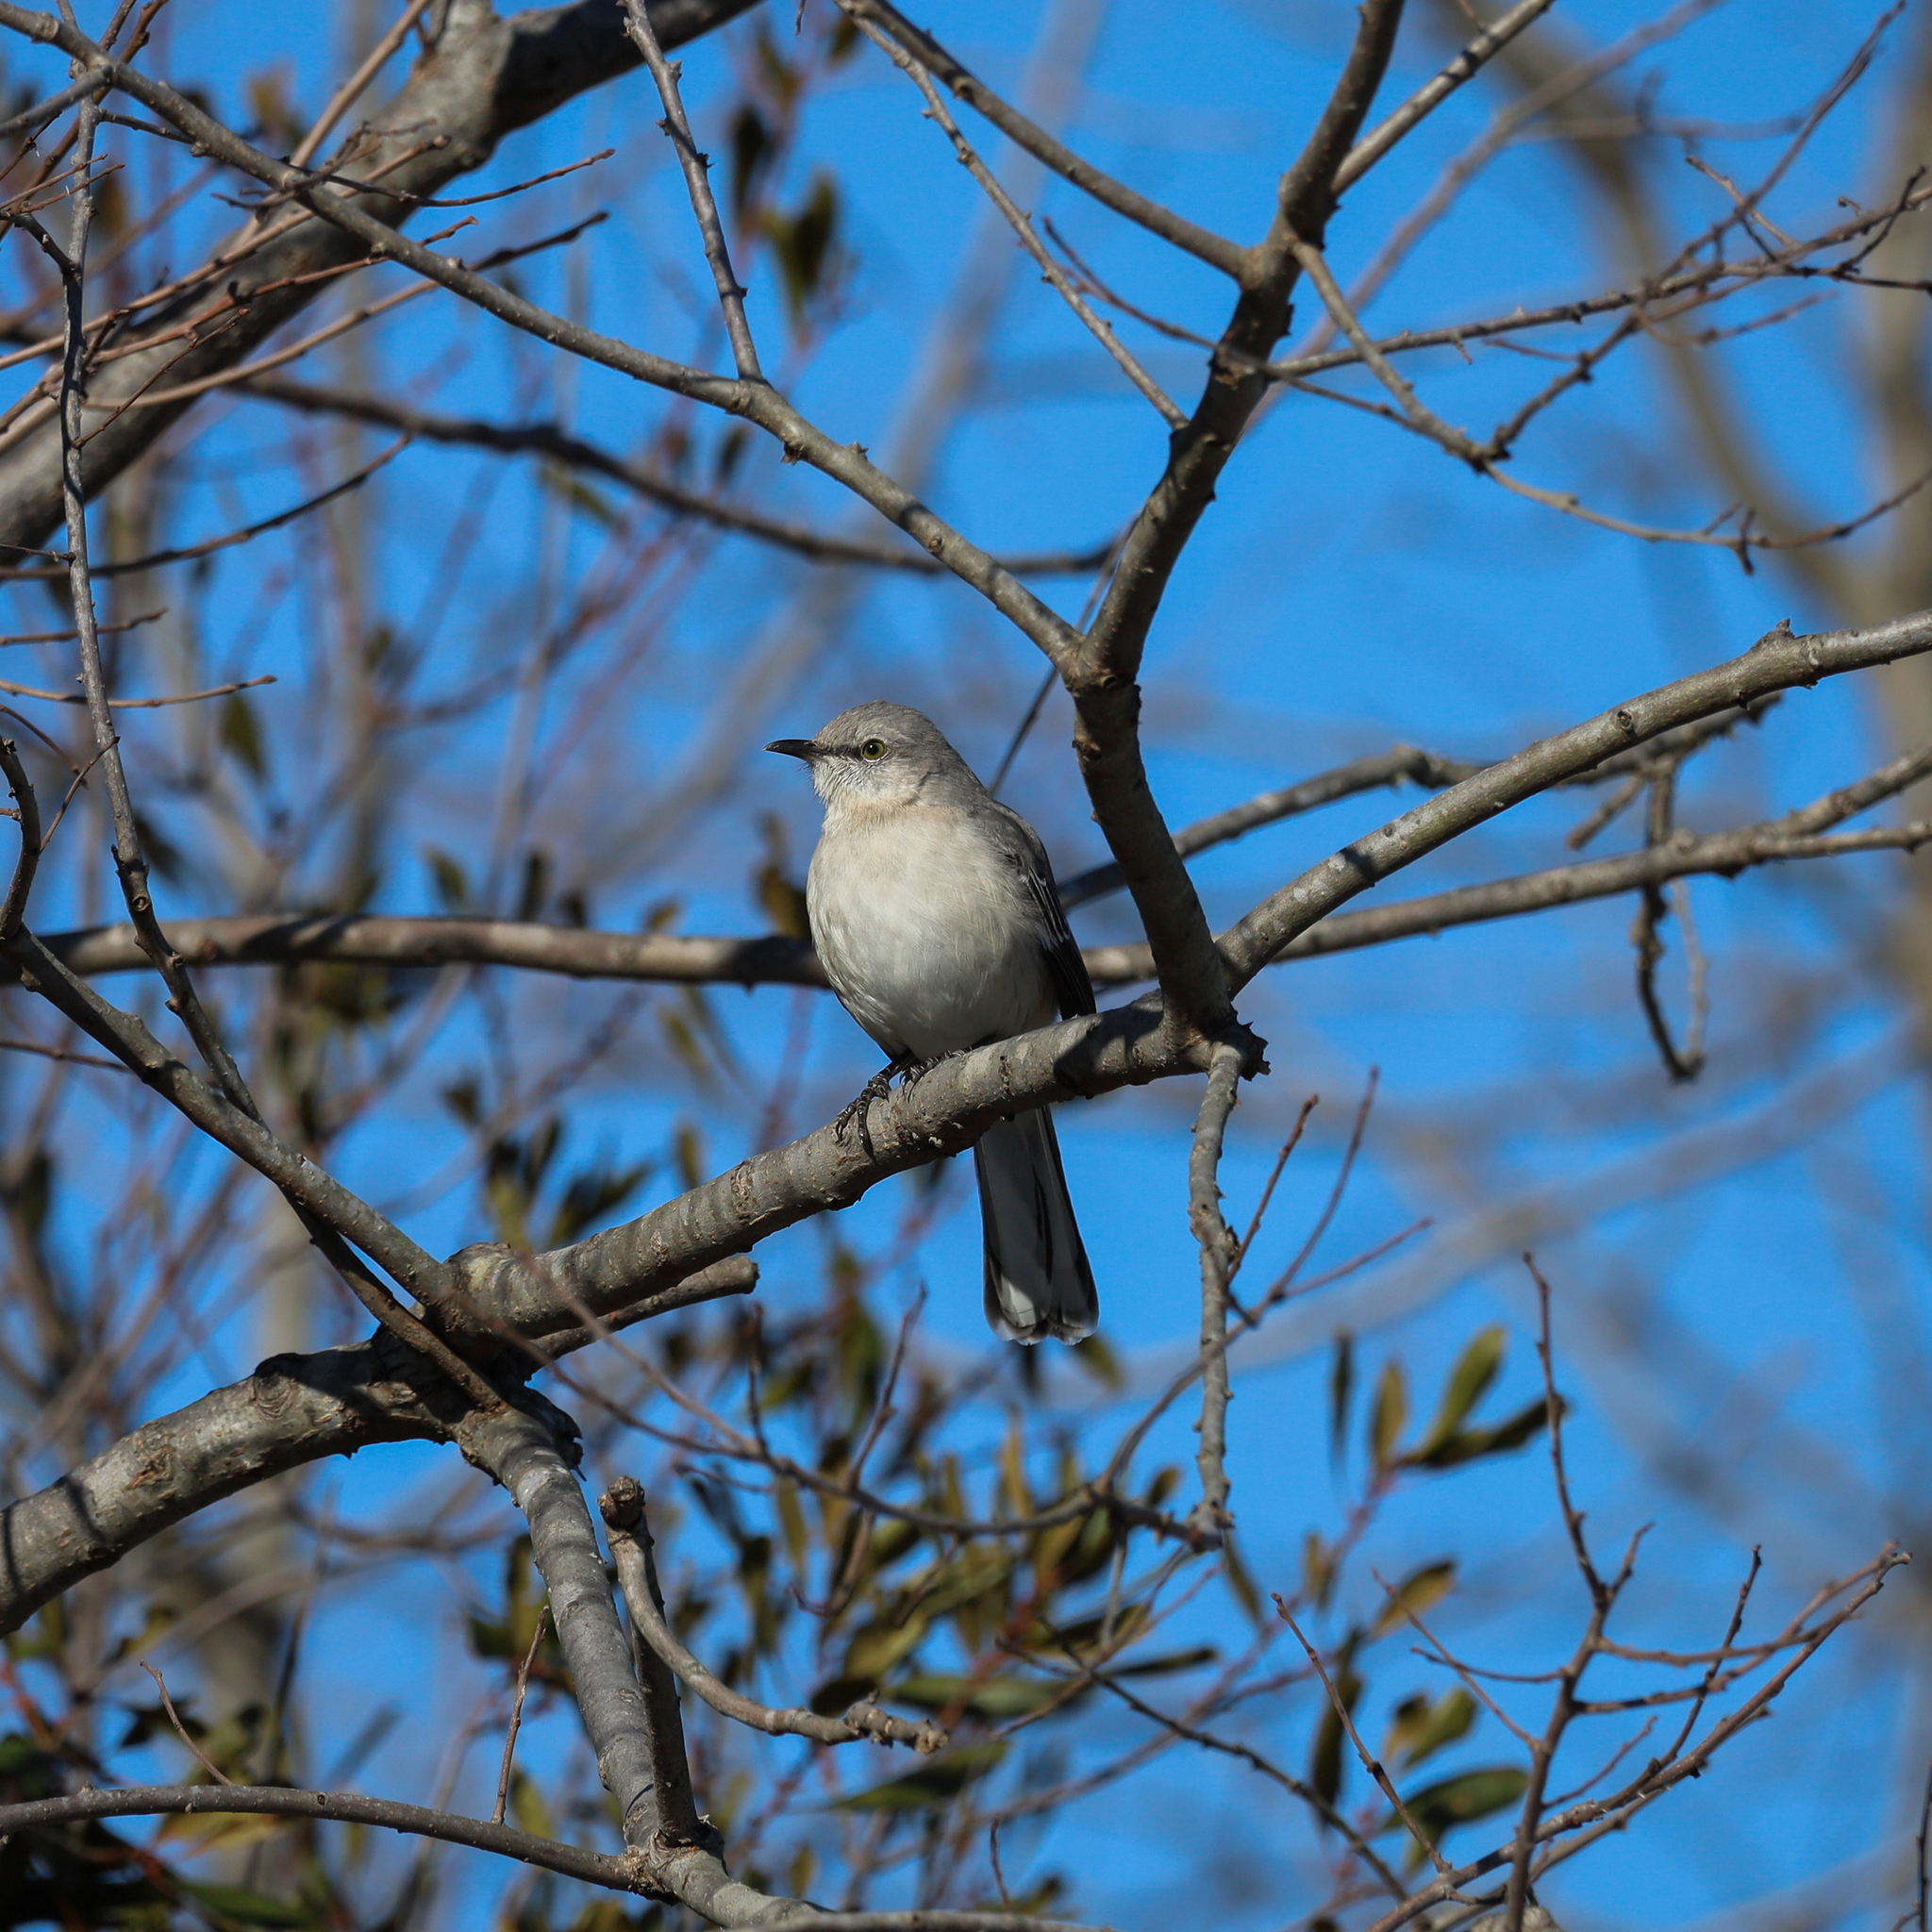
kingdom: Animalia
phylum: Chordata
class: Aves
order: Passeriformes
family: Mimidae
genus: Mimus
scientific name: Mimus polyglottos
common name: Northern mockingbird
